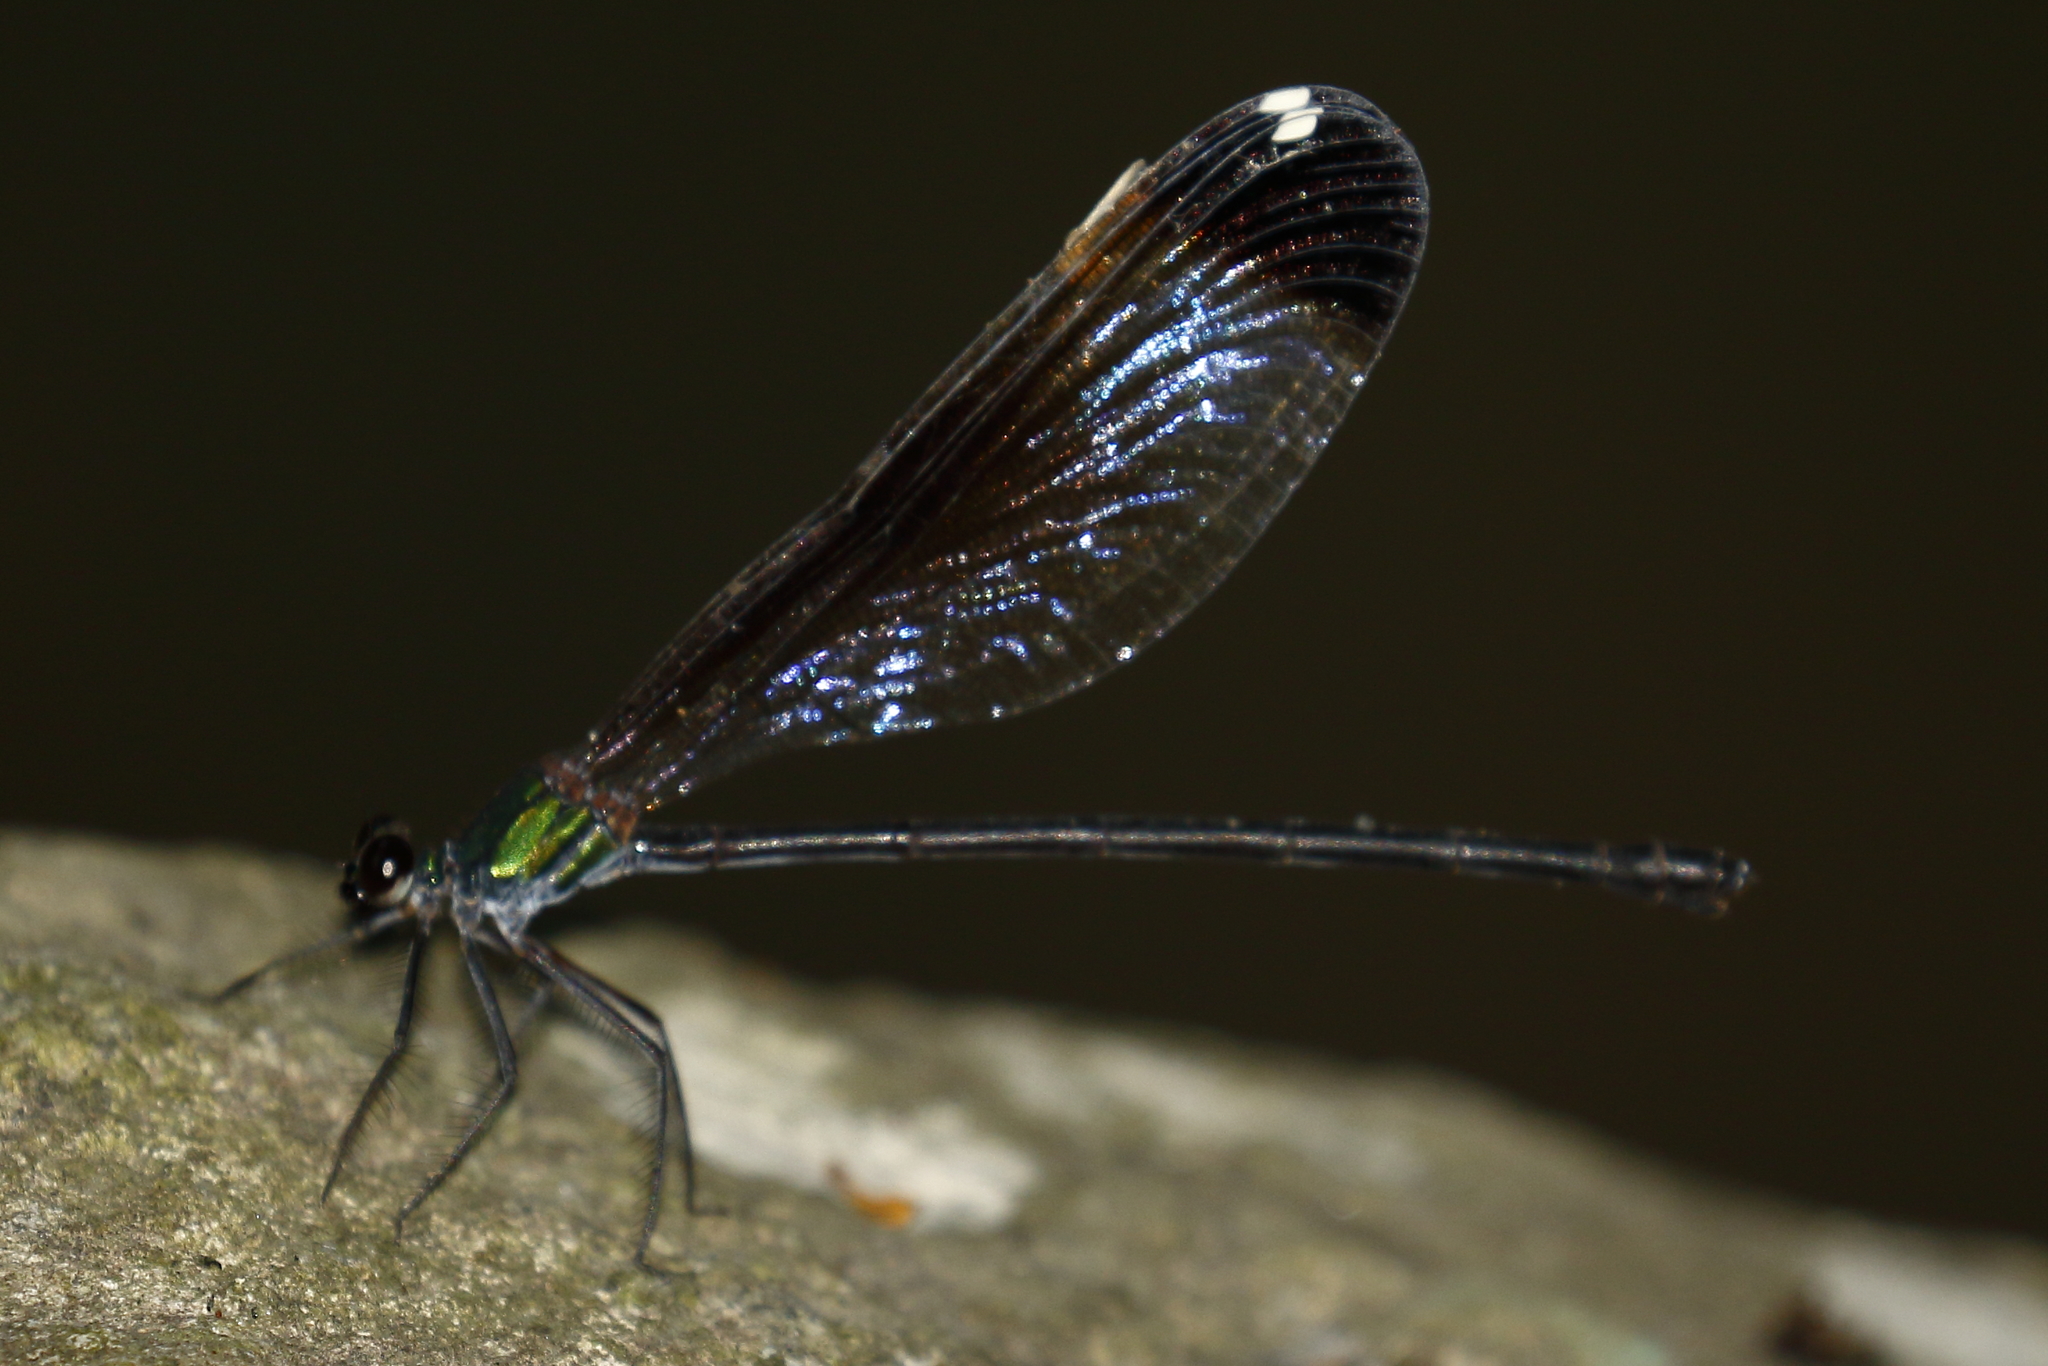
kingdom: Animalia
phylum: Arthropoda
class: Insecta
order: Odonata
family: Calopterygidae
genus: Psolodesmus
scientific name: Psolodesmus mandarinus
